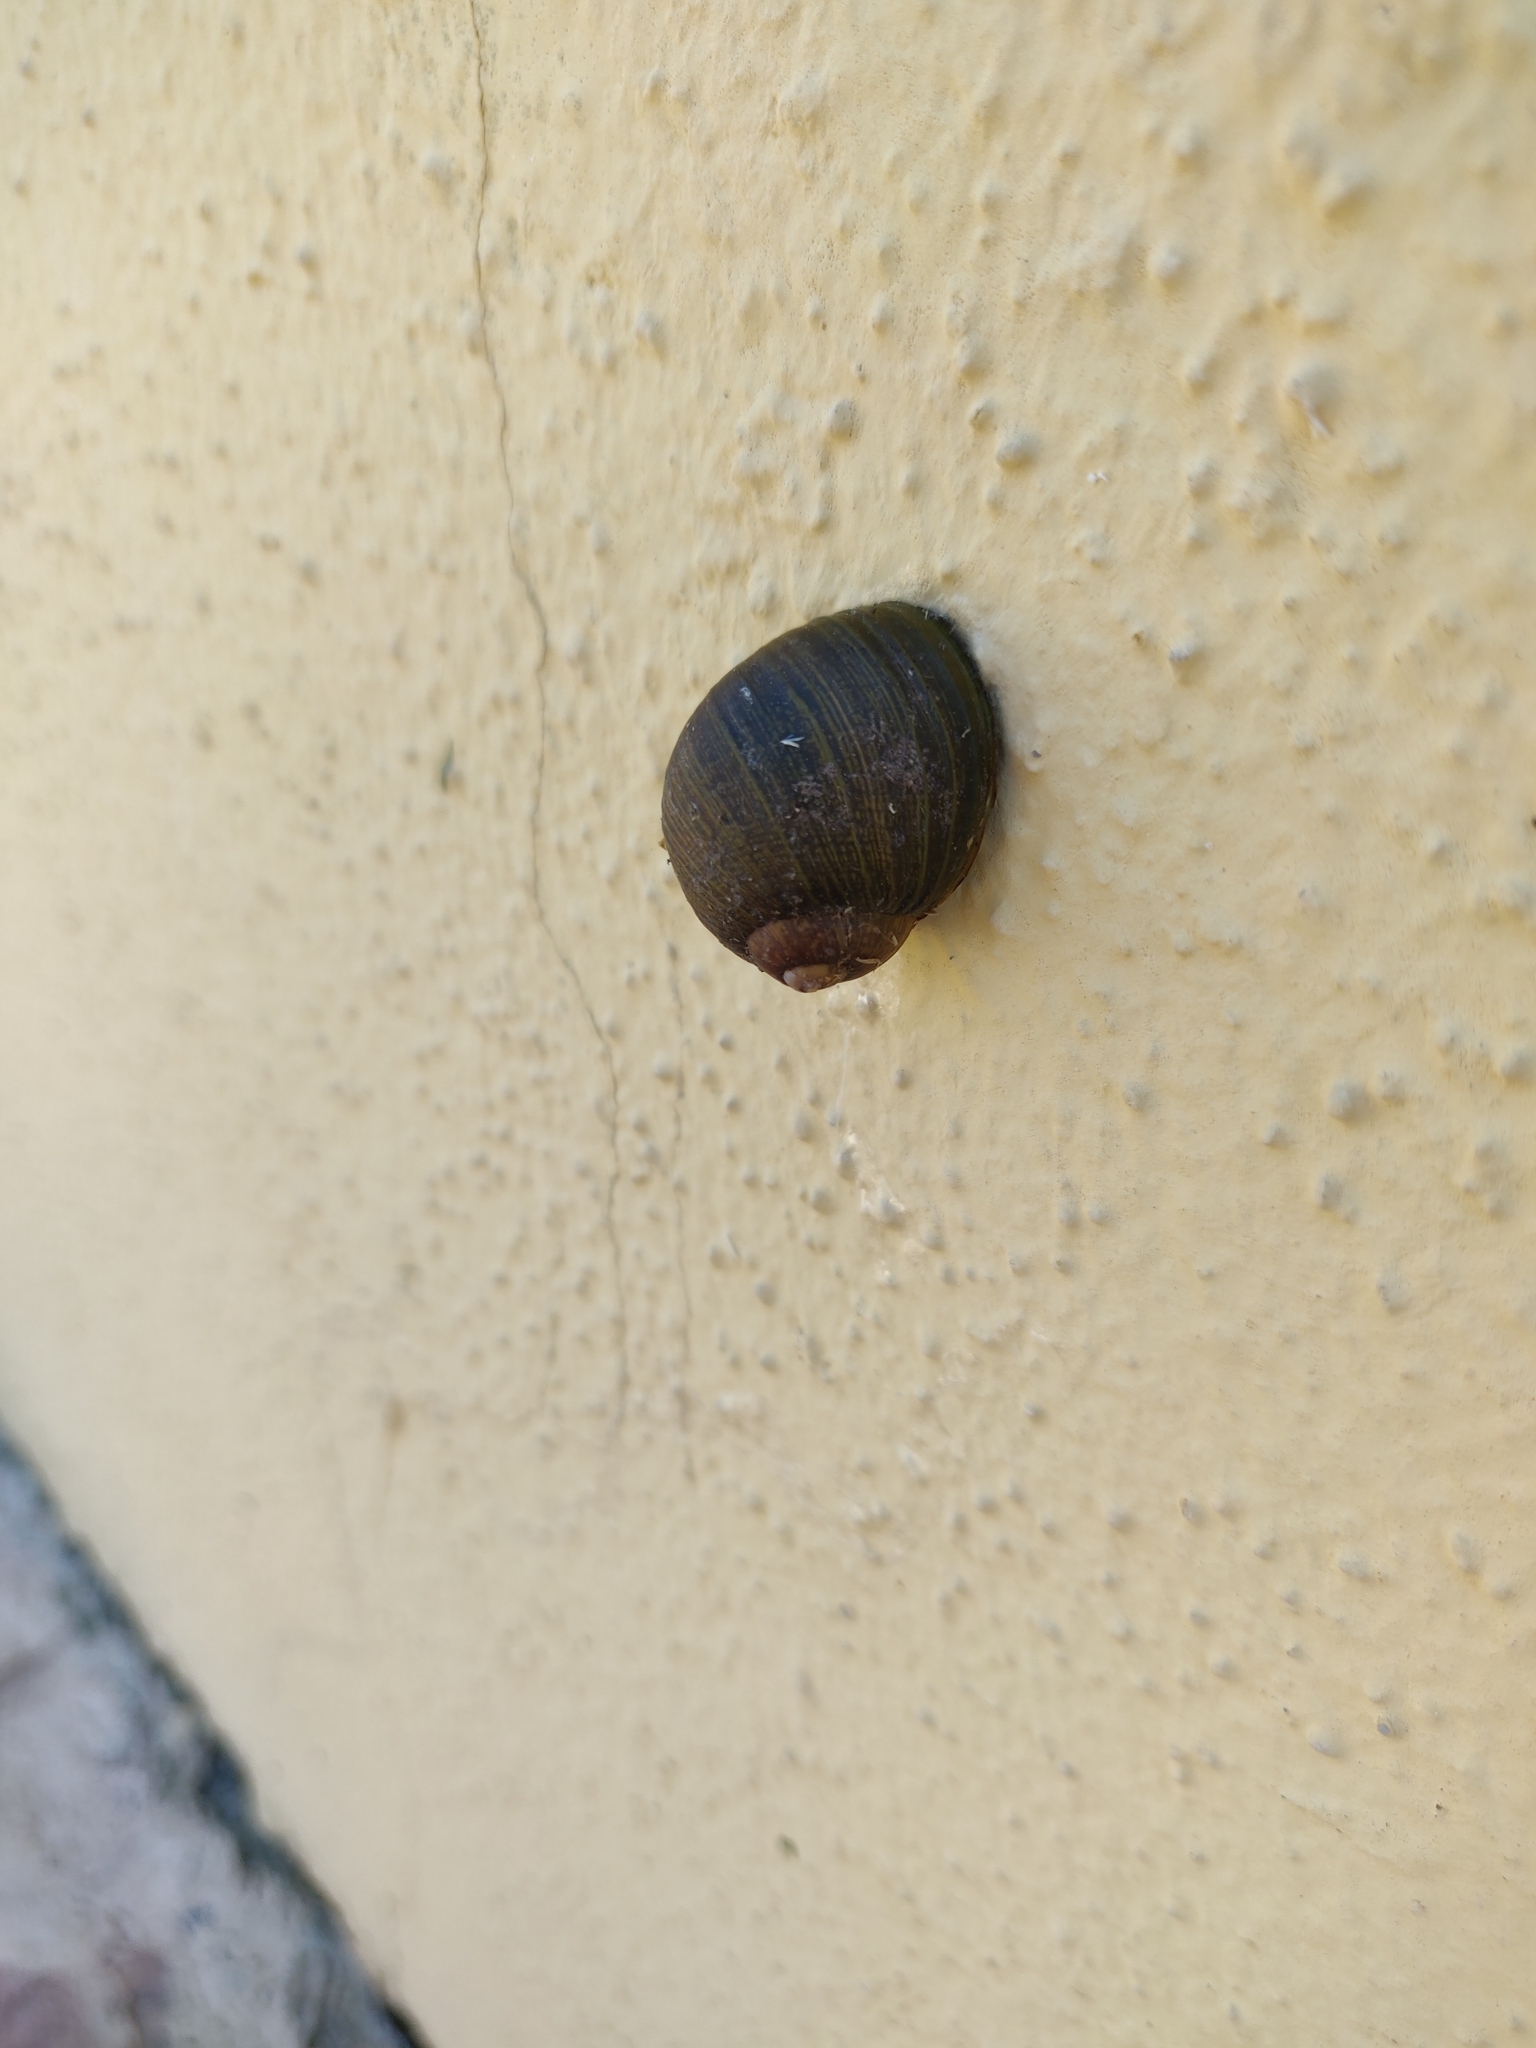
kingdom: Animalia
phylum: Mollusca
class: Gastropoda
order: Stylommatophora
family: Helicidae
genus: Cantareus
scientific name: Cantareus apertus
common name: Green gardensnail
